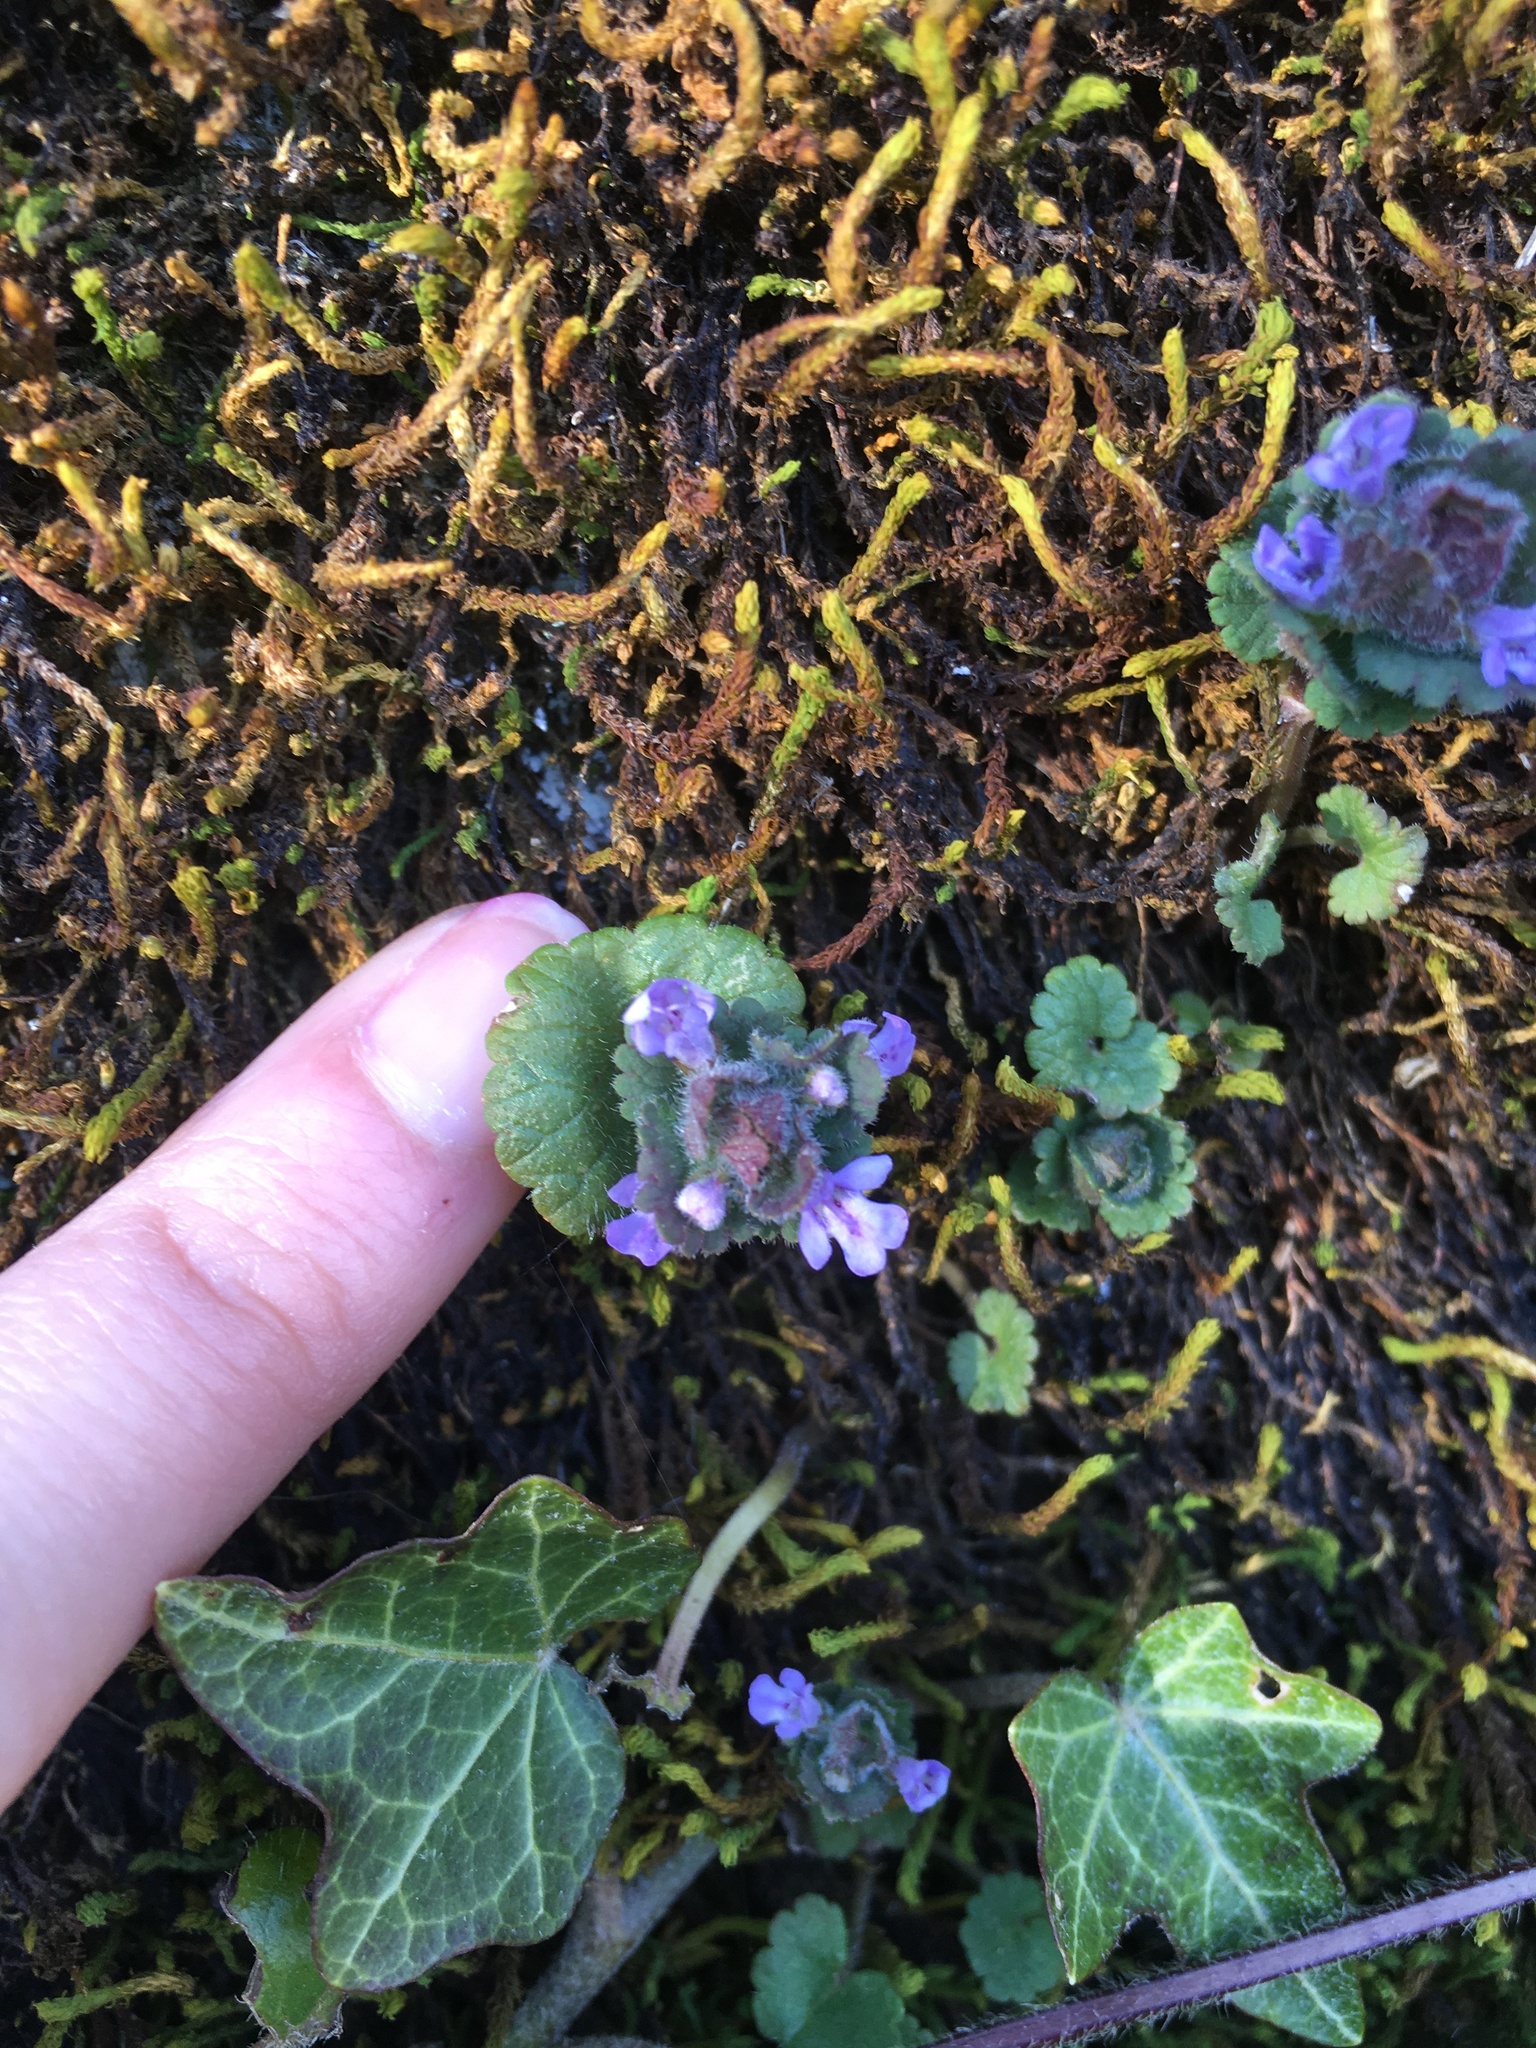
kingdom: Plantae
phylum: Tracheophyta
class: Magnoliopsida
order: Lamiales
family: Lamiaceae
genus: Glechoma
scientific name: Glechoma hederacea
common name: Ground ivy
